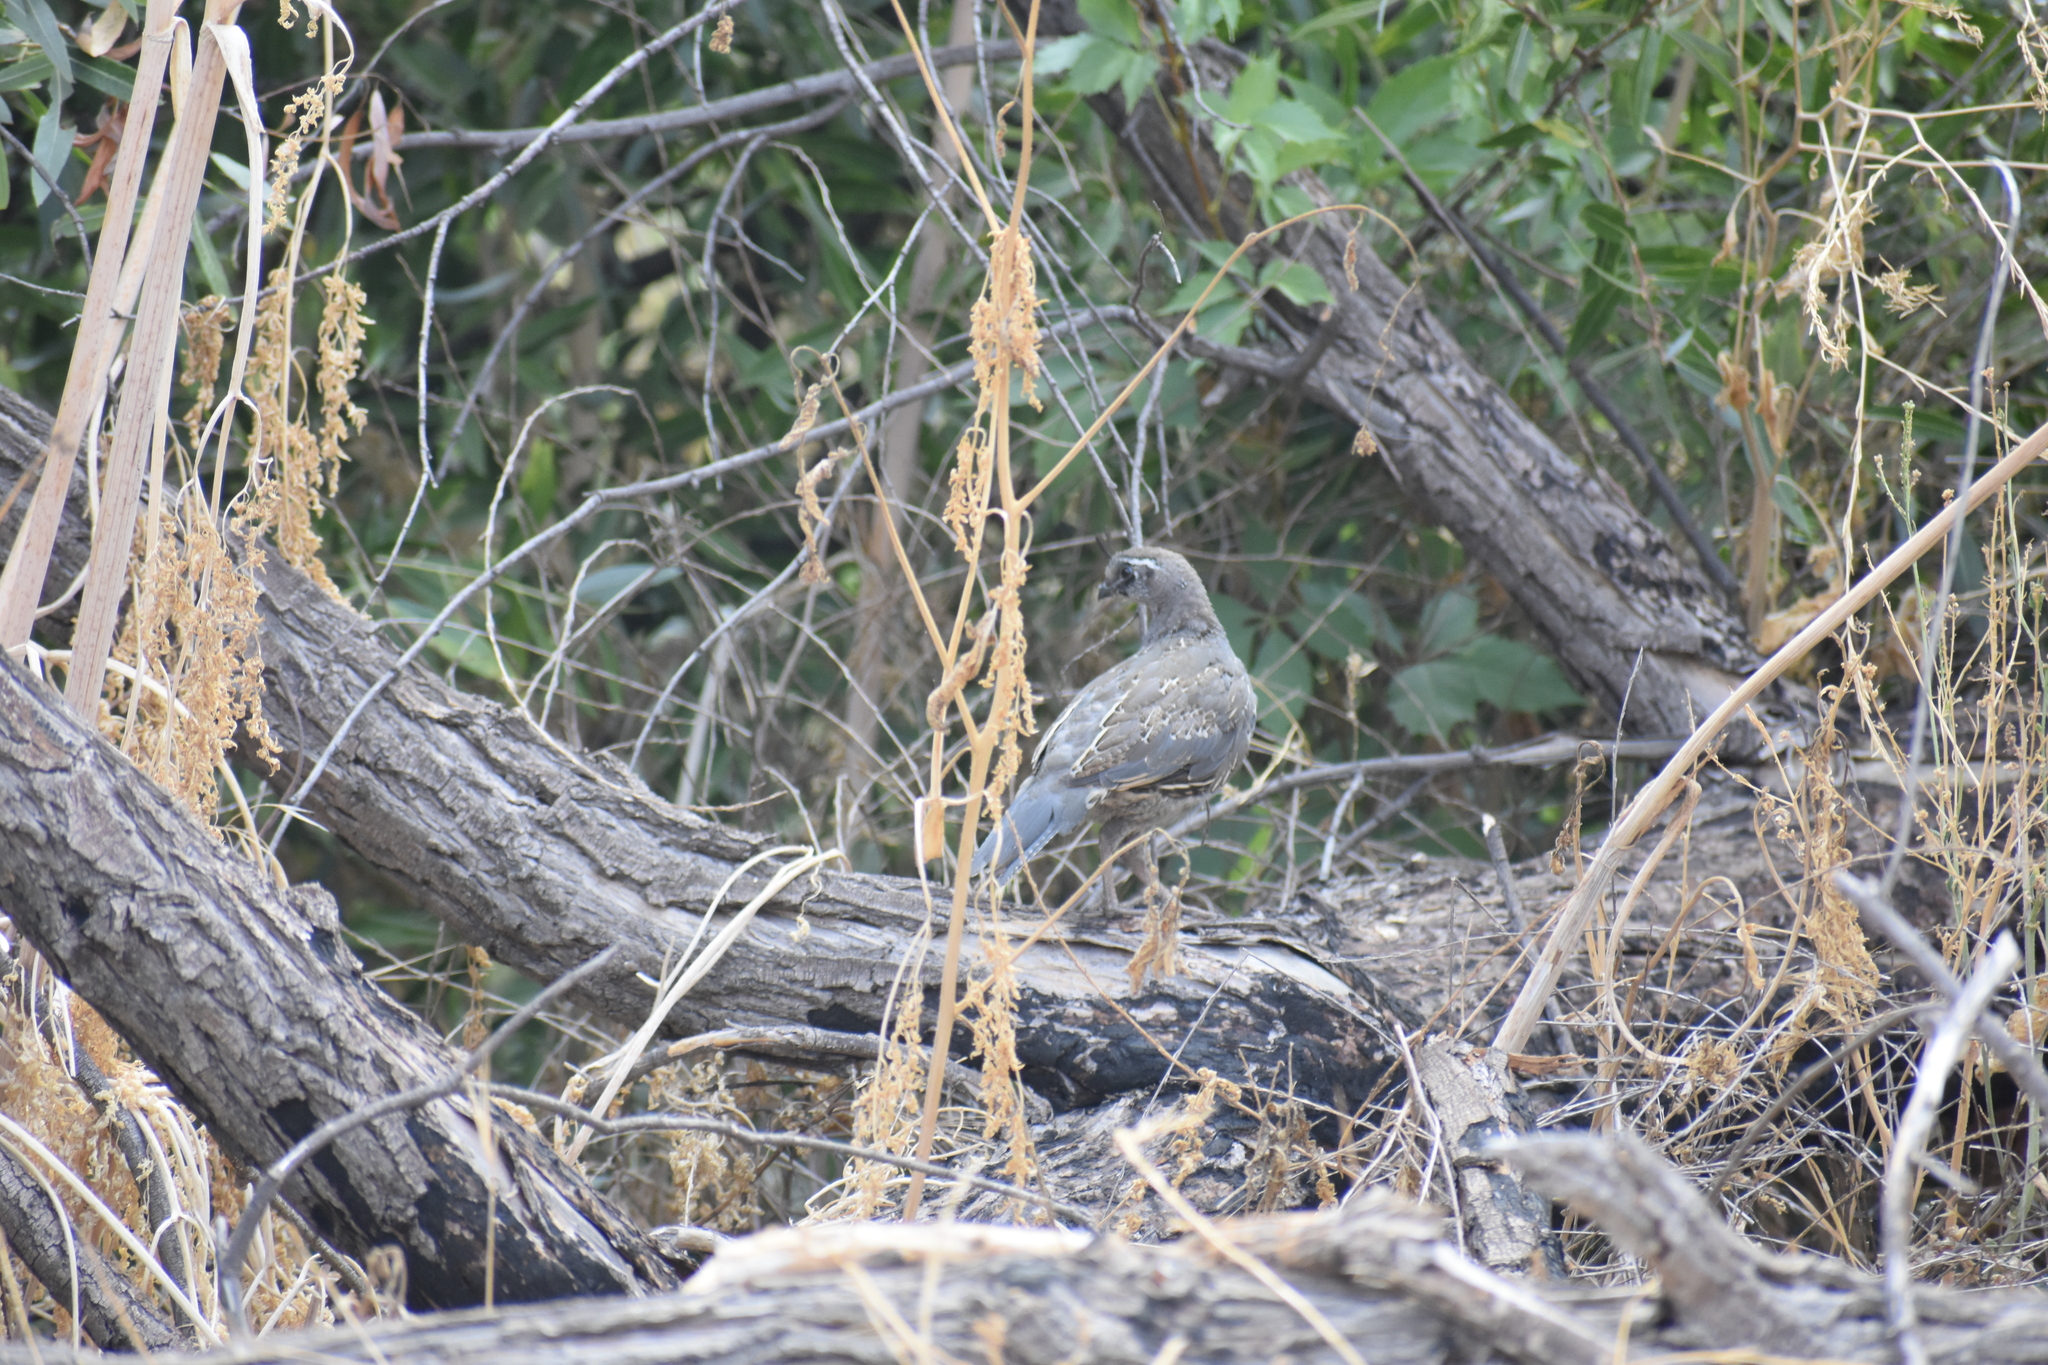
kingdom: Animalia
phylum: Chordata
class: Aves
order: Galliformes
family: Odontophoridae
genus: Callipepla
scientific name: Callipepla californica
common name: California quail
